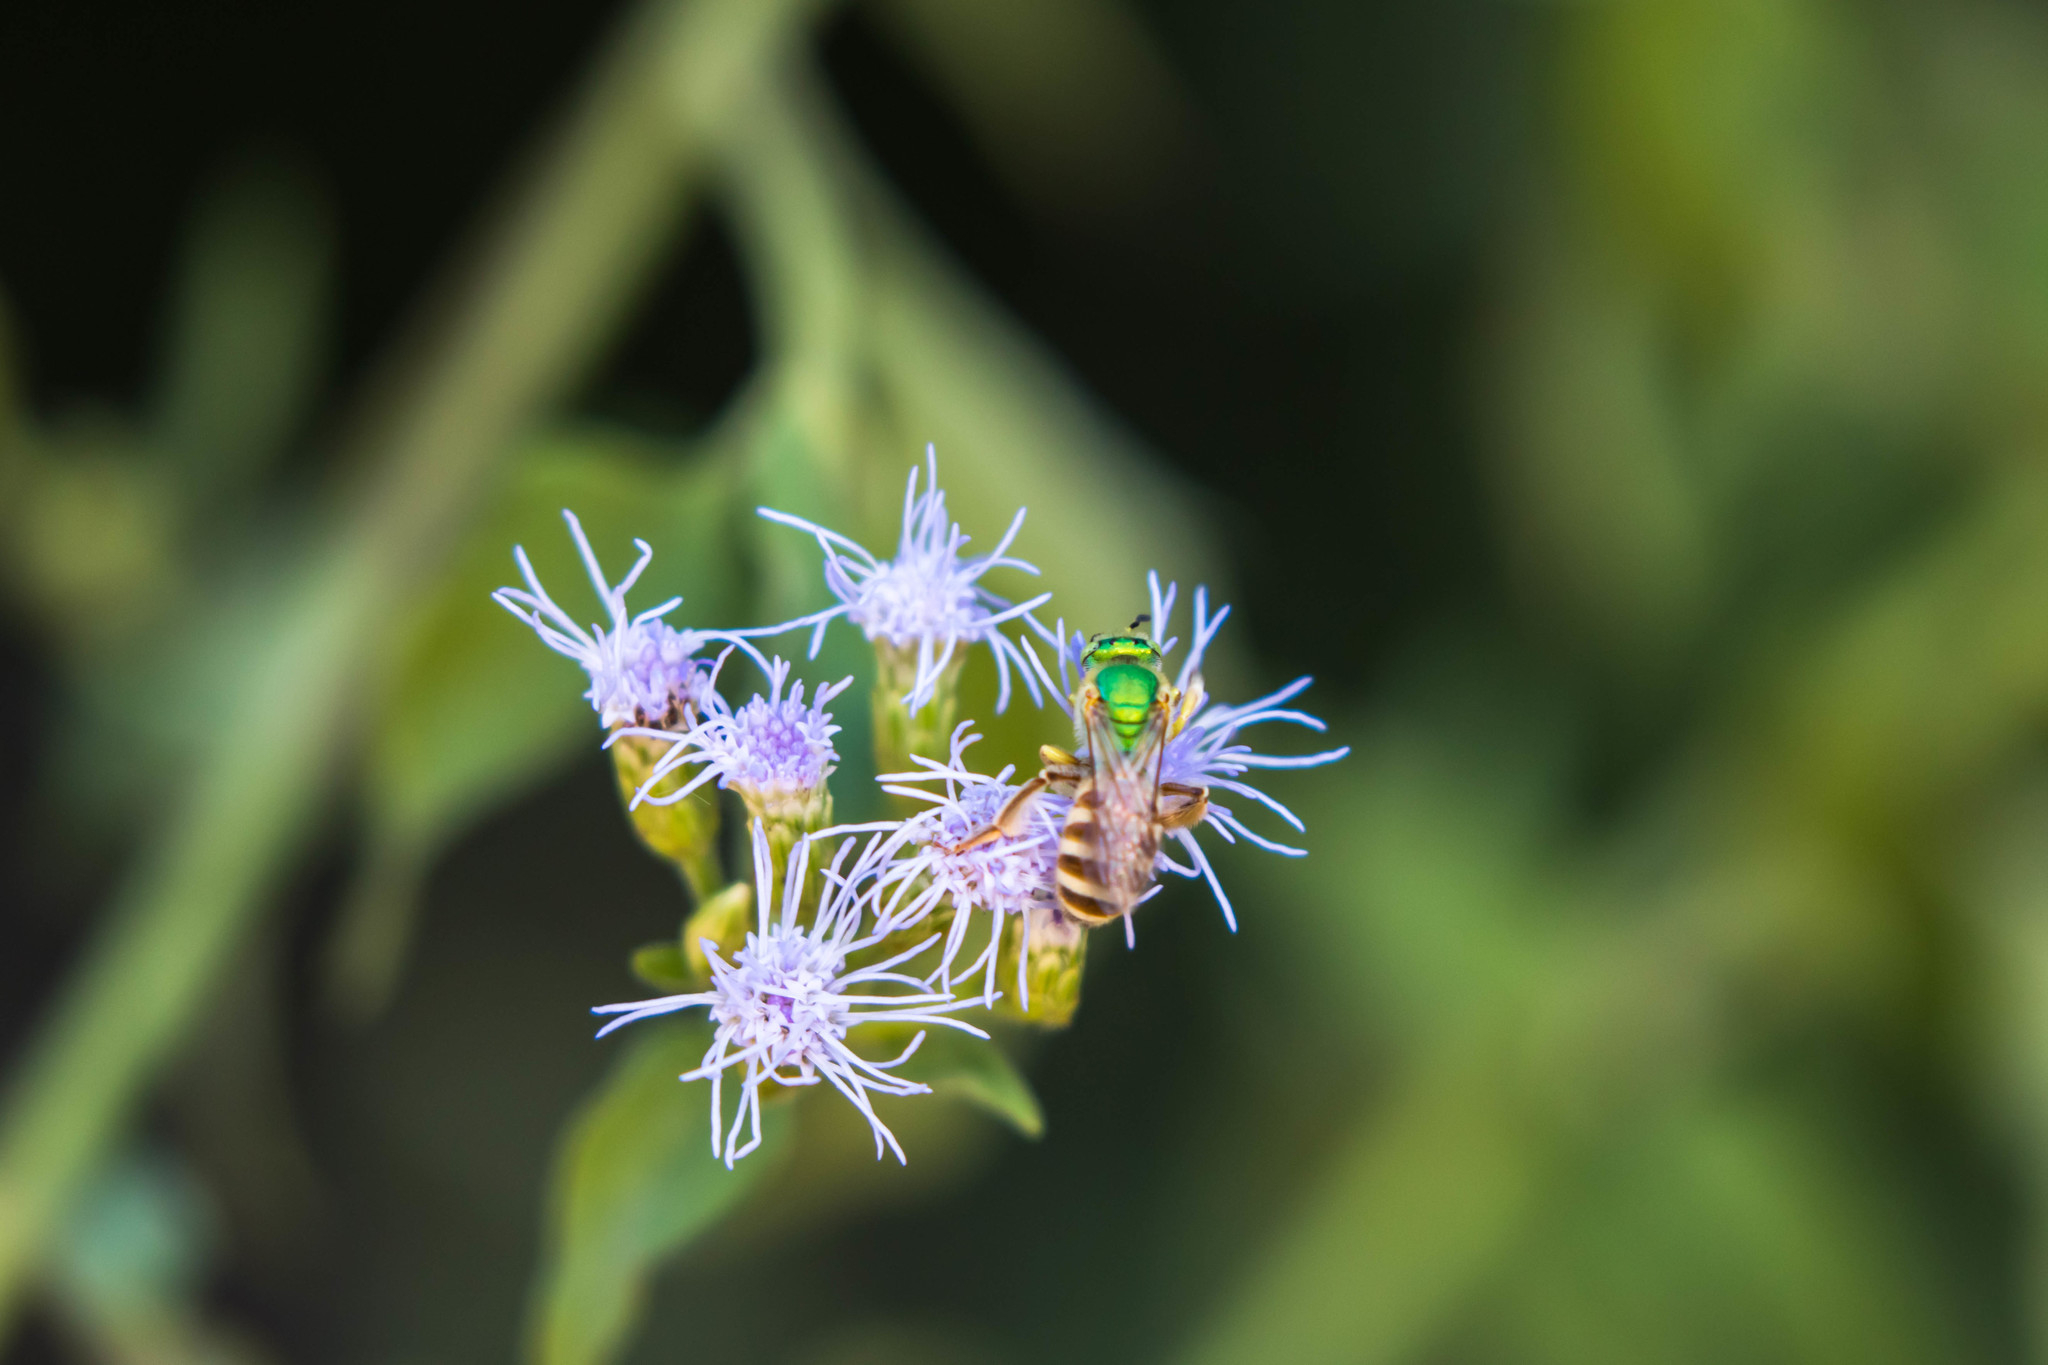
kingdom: Animalia
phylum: Arthropoda
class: Insecta
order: Hymenoptera
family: Halictidae
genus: Agapostemon
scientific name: Agapostemon melliventris
